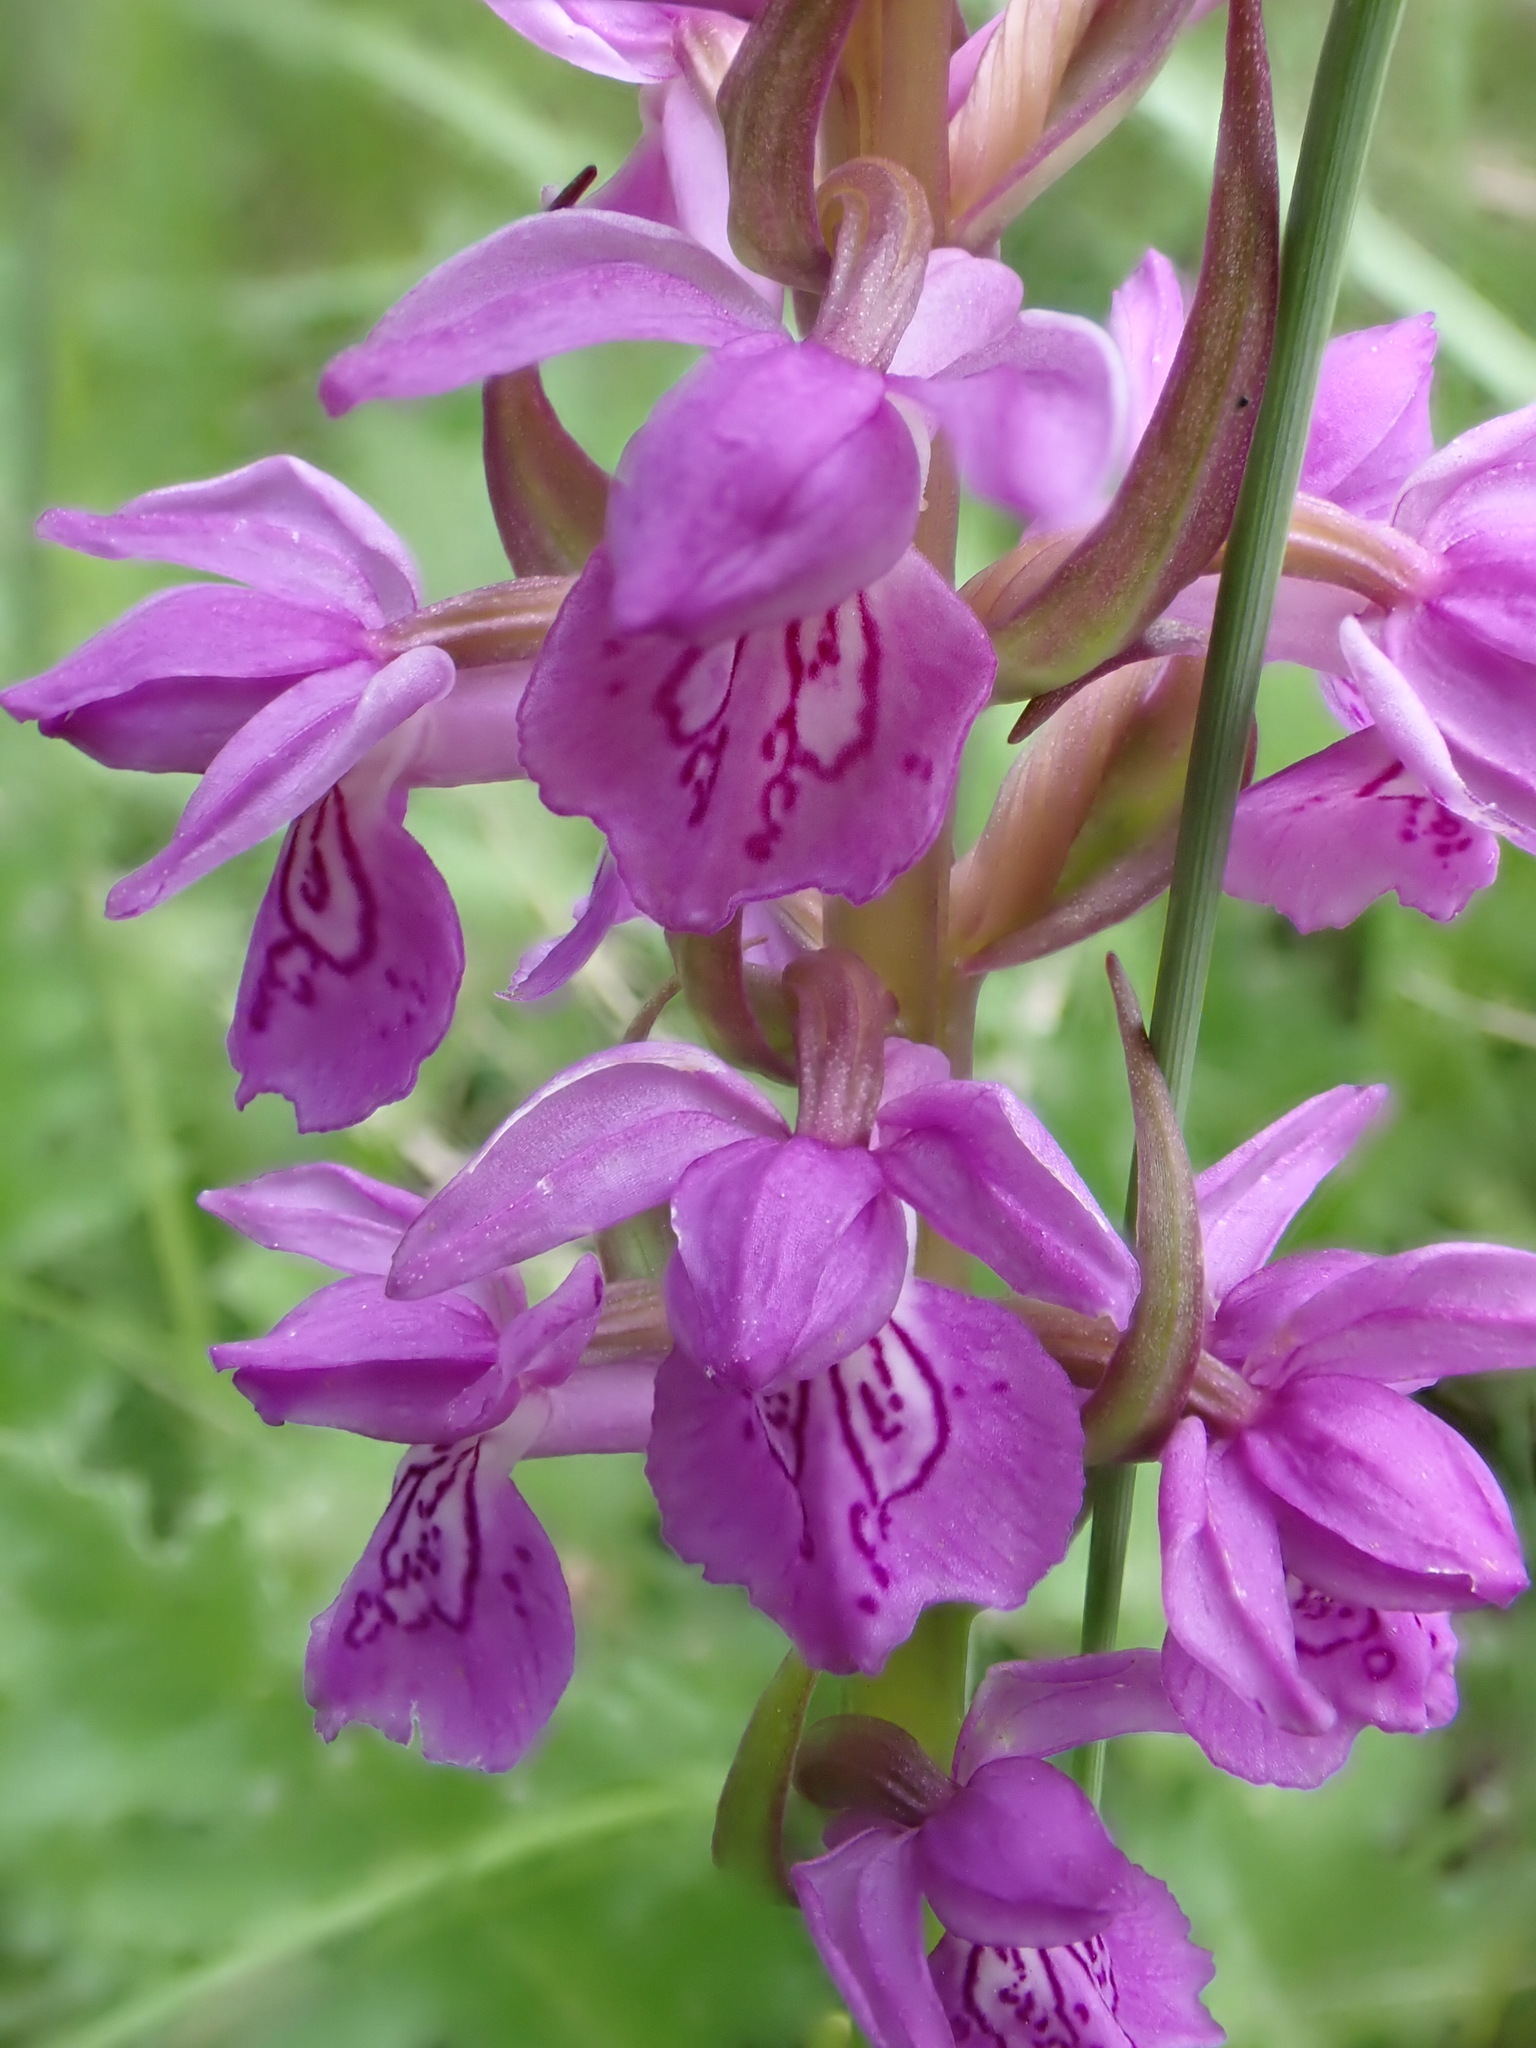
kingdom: Plantae
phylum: Tracheophyta
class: Liliopsida
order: Asparagales
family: Orchidaceae
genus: Dactylorhiza
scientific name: Dactylorhiza elata
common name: Stately dactylorhiza
